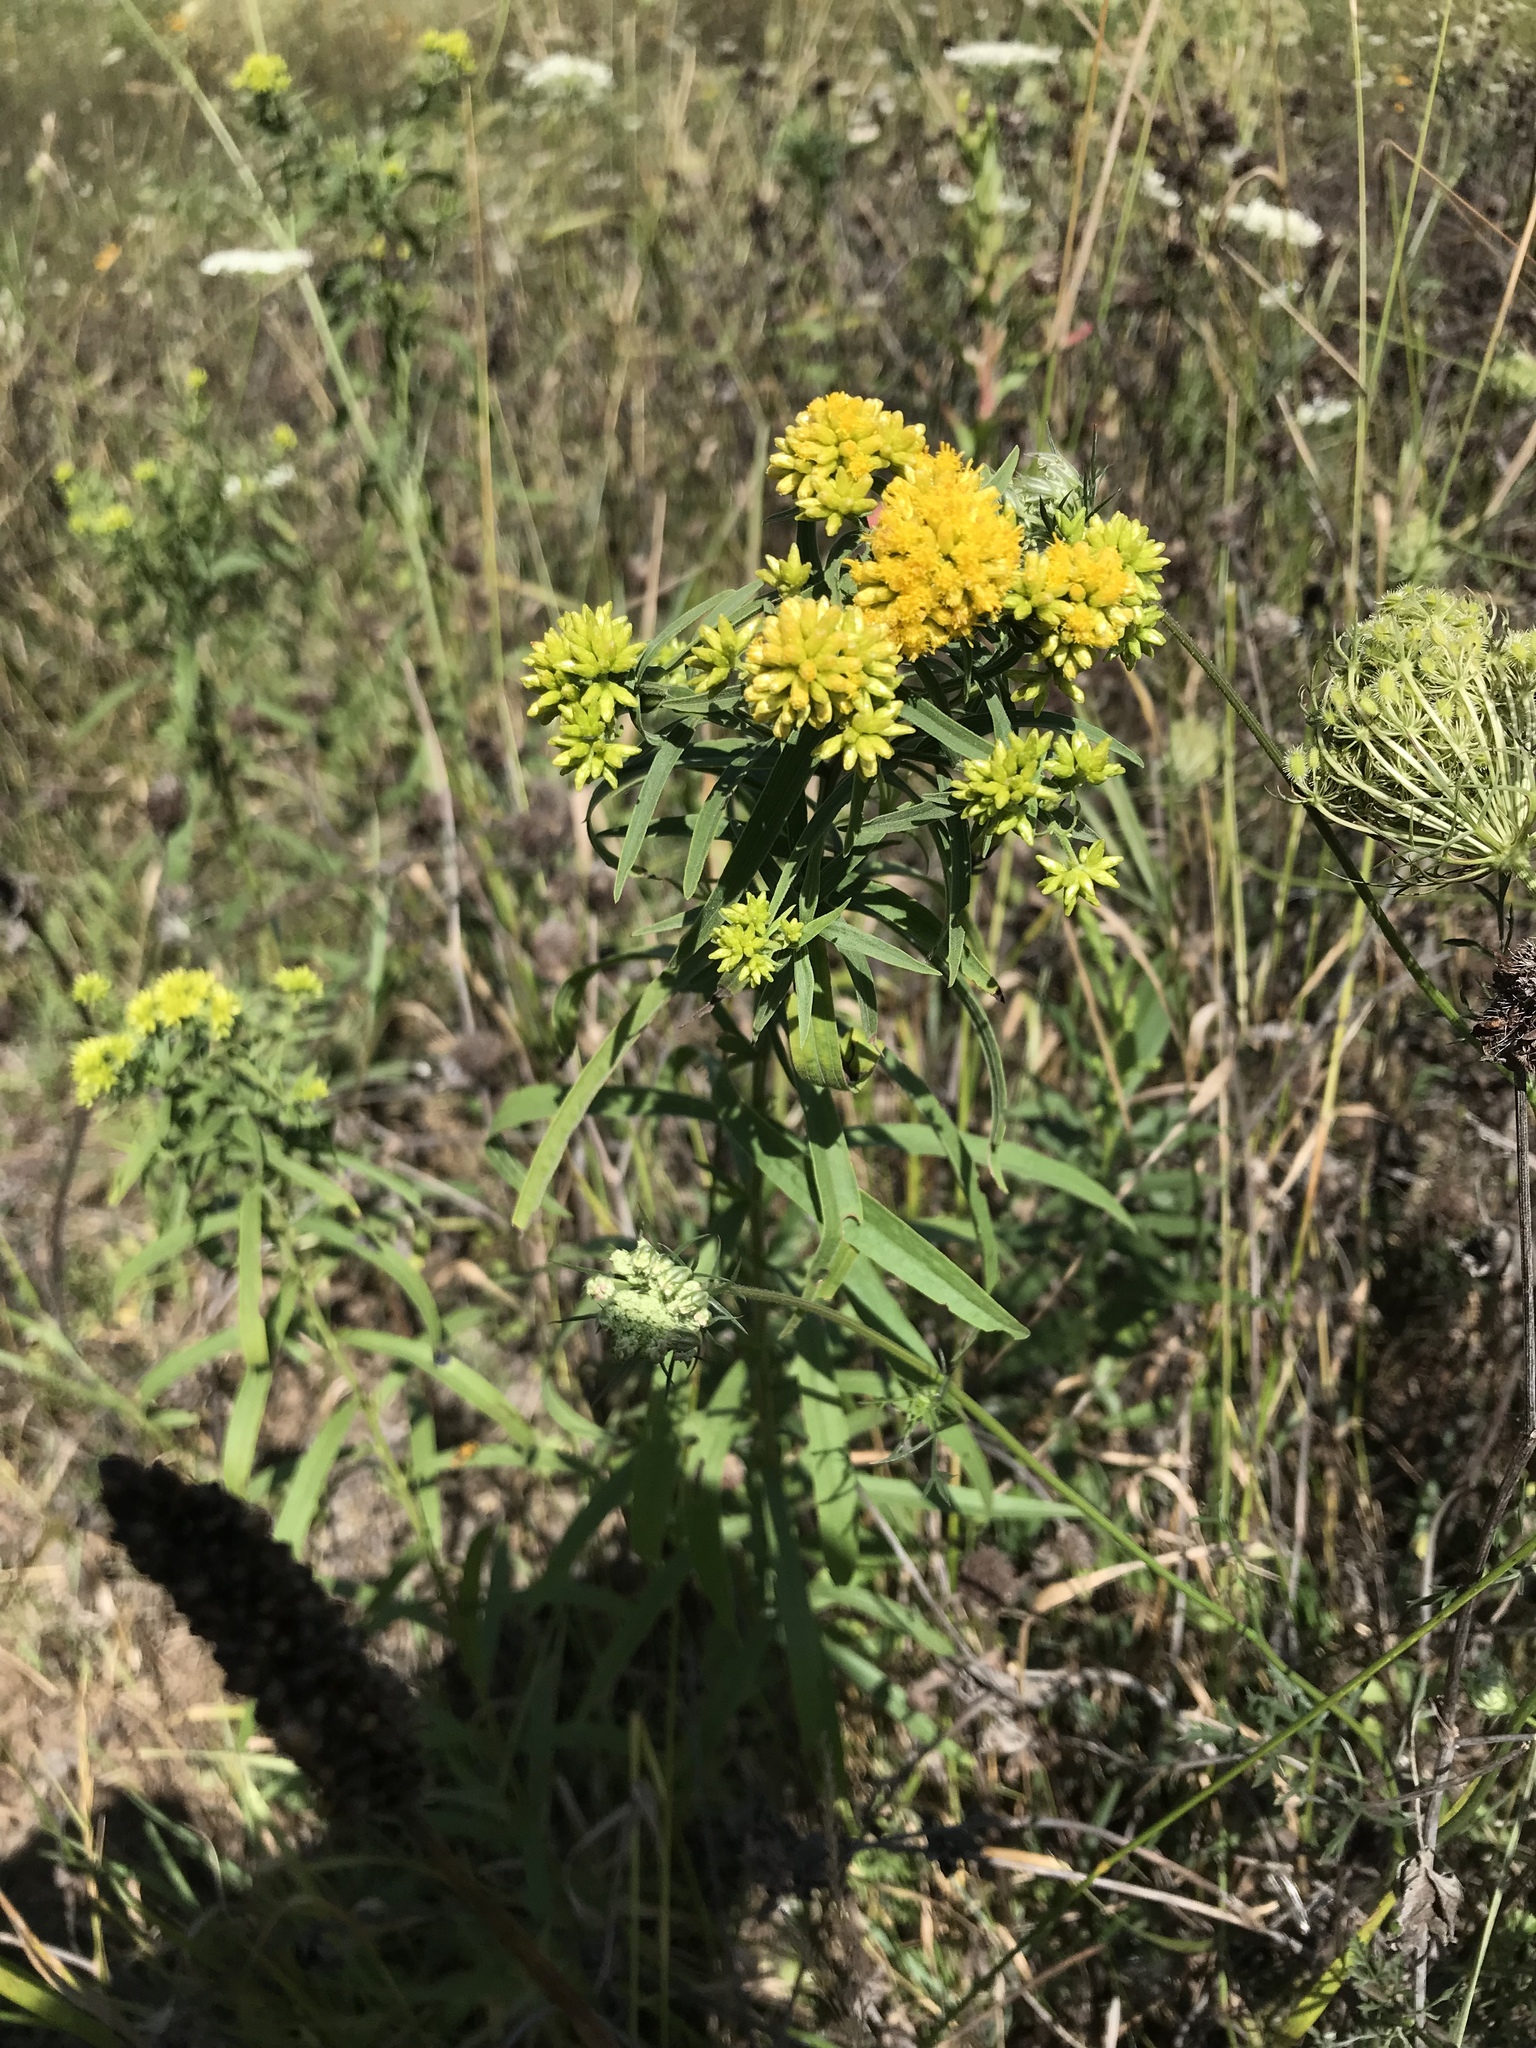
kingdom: Plantae
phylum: Tracheophyta
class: Magnoliopsida
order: Asterales
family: Asteraceae
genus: Euthamia
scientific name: Euthamia graminifolia
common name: Common goldentop
